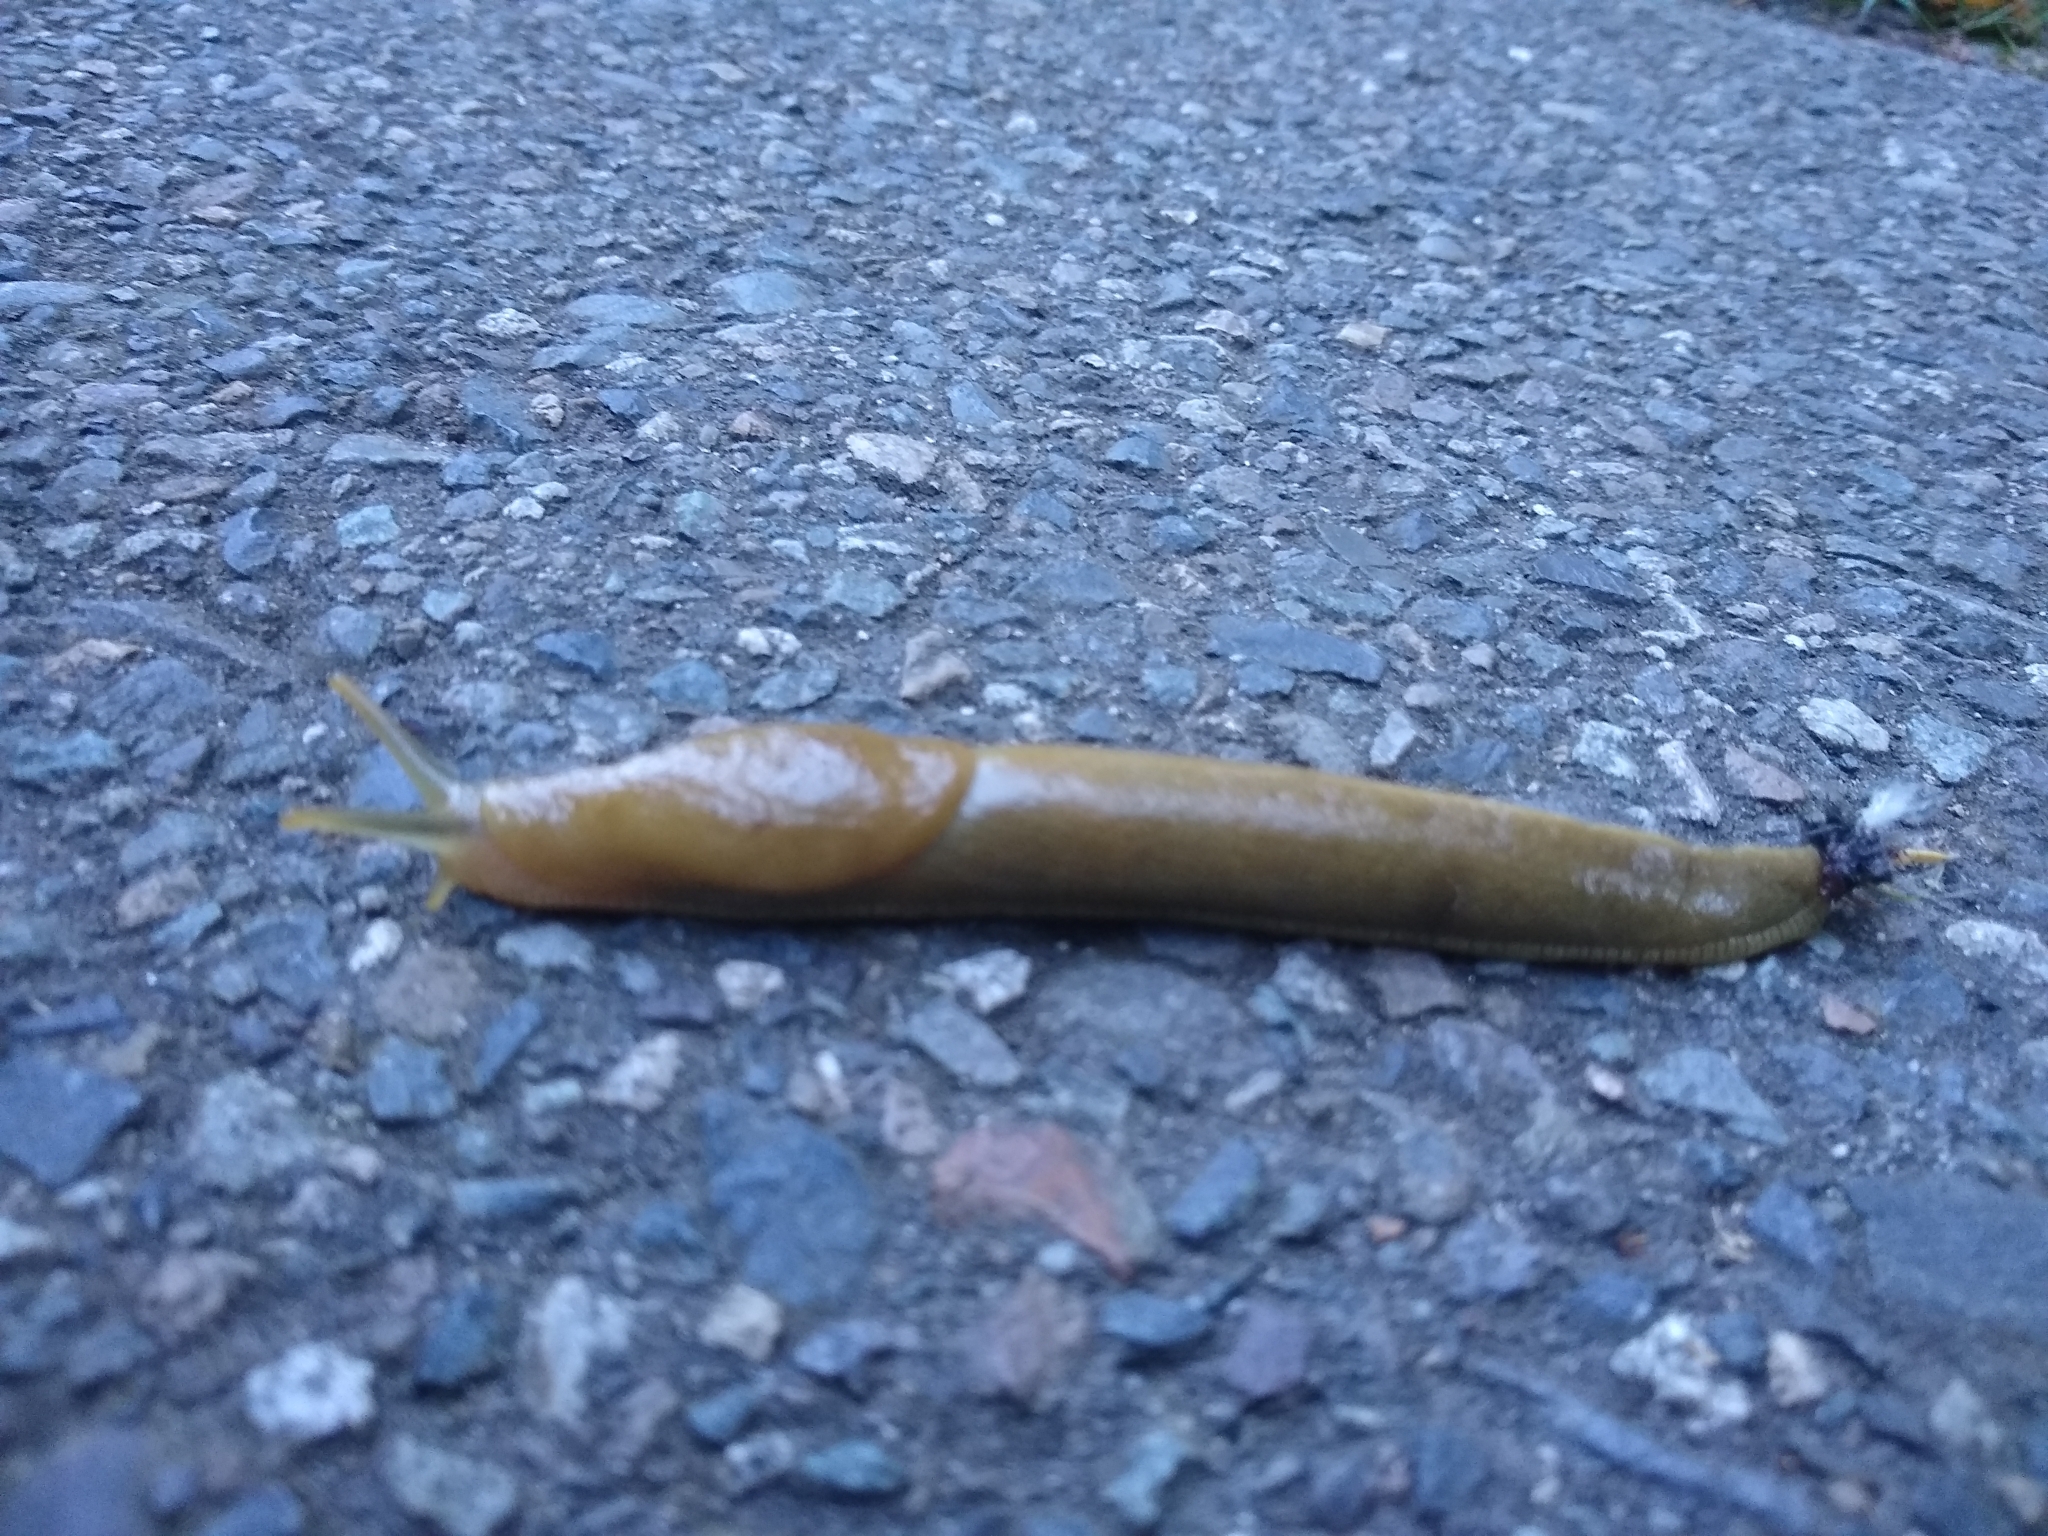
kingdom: Animalia
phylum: Mollusca
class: Gastropoda
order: Stylommatophora
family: Ariolimacidae
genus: Ariolimax
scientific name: Ariolimax columbianus
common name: Pacific banana slug
